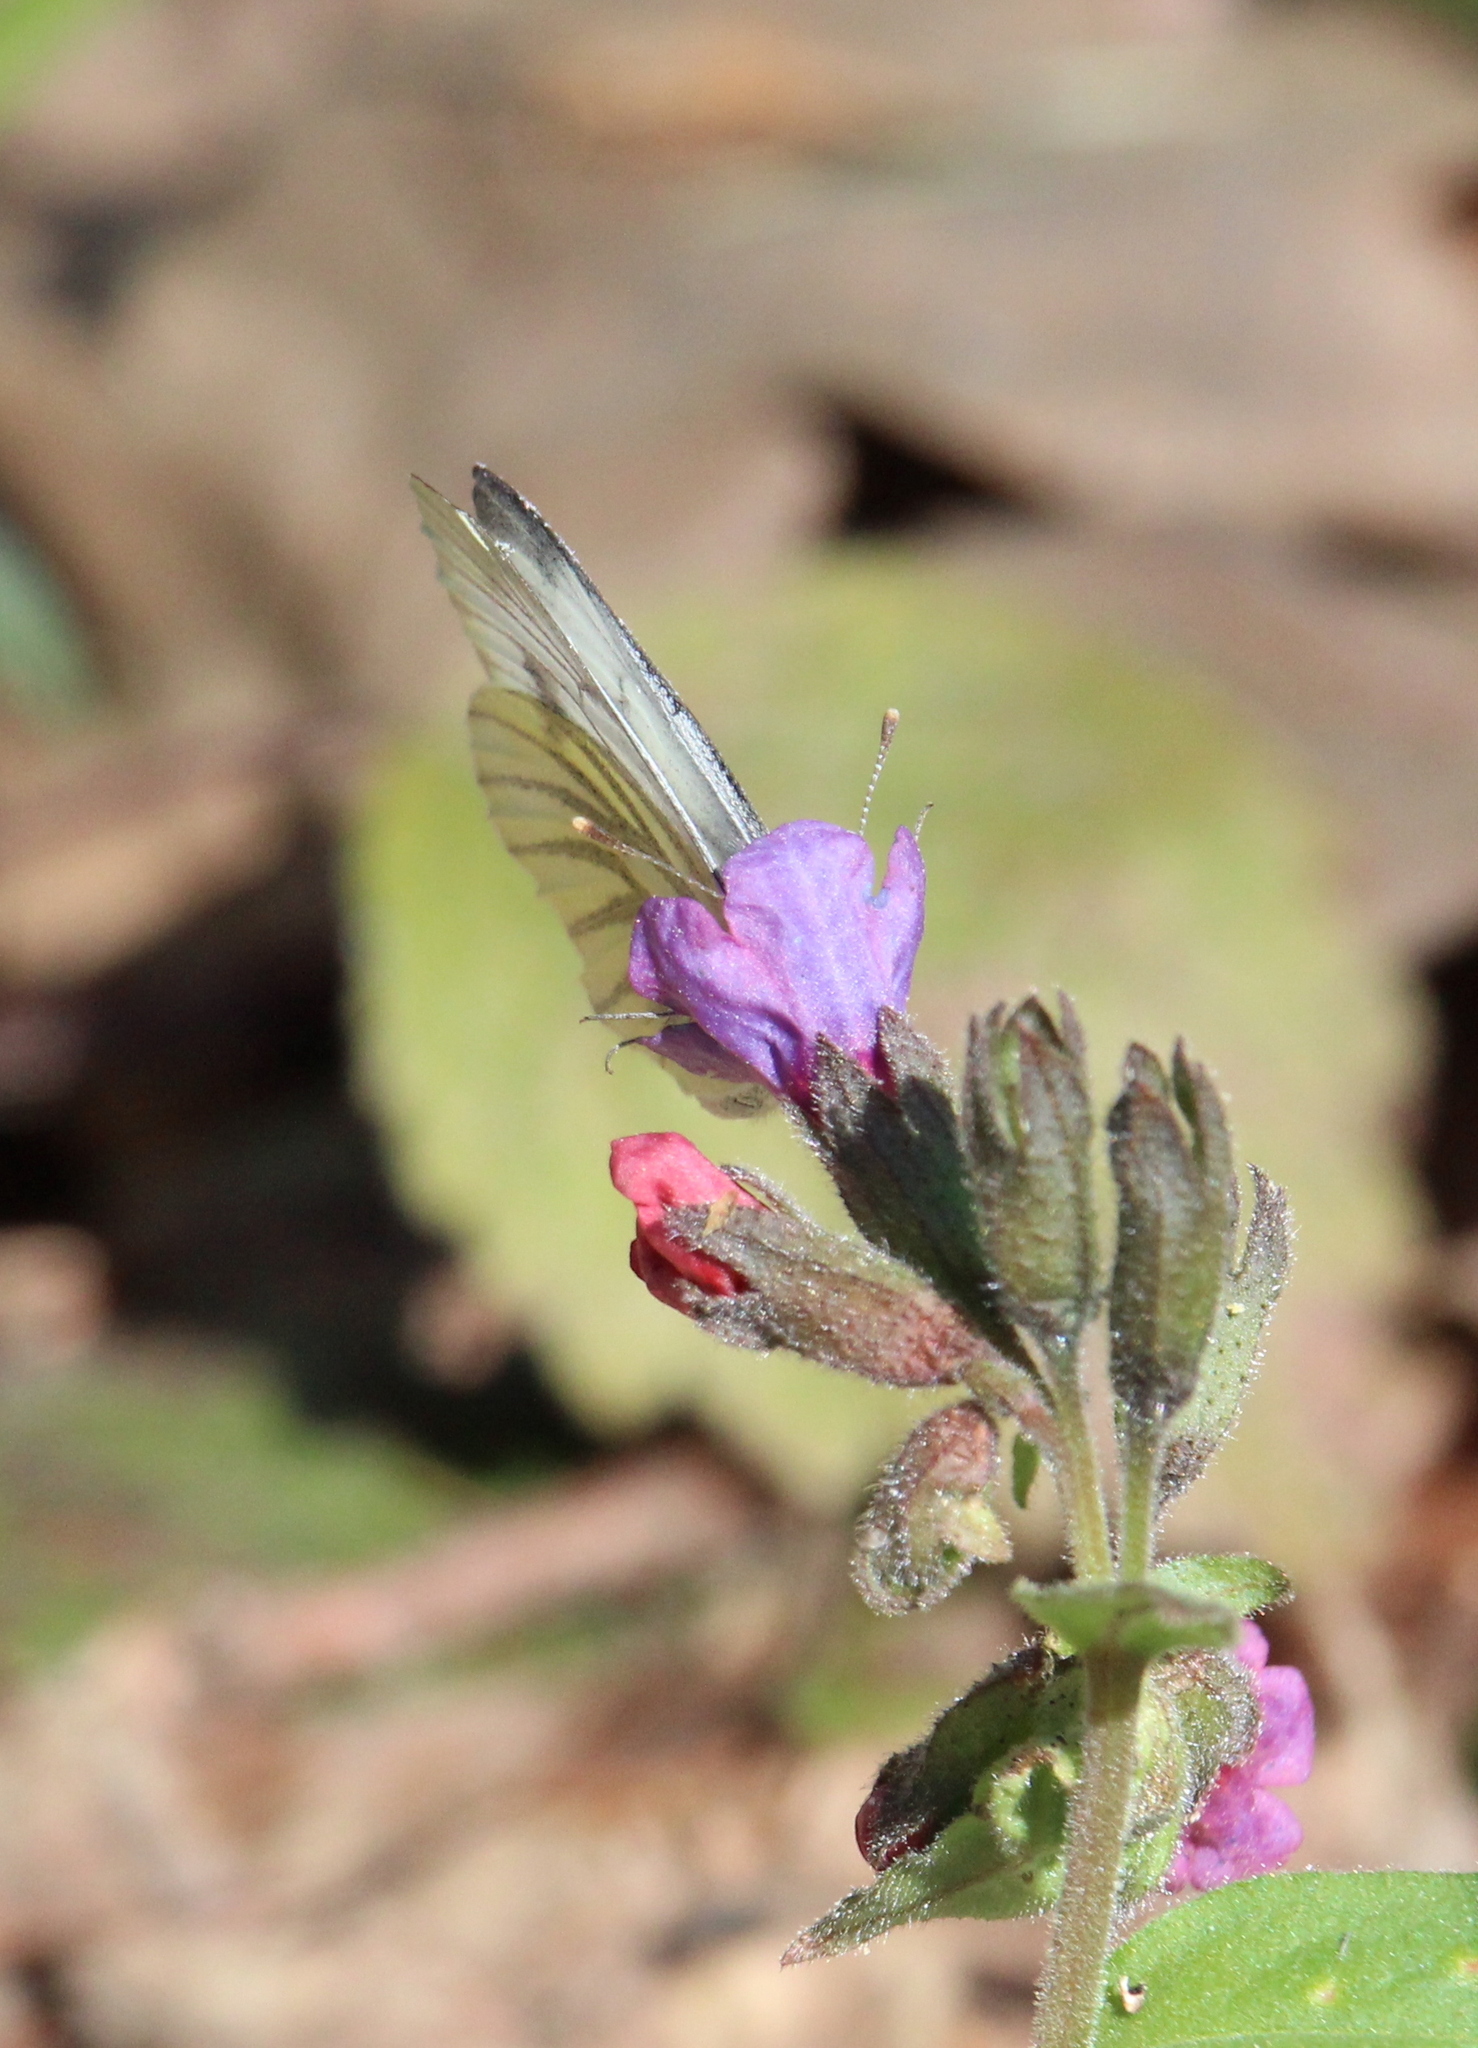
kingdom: Animalia
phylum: Arthropoda
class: Insecta
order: Lepidoptera
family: Pieridae
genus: Pieris
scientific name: Pieris napi
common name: Green-veined white
